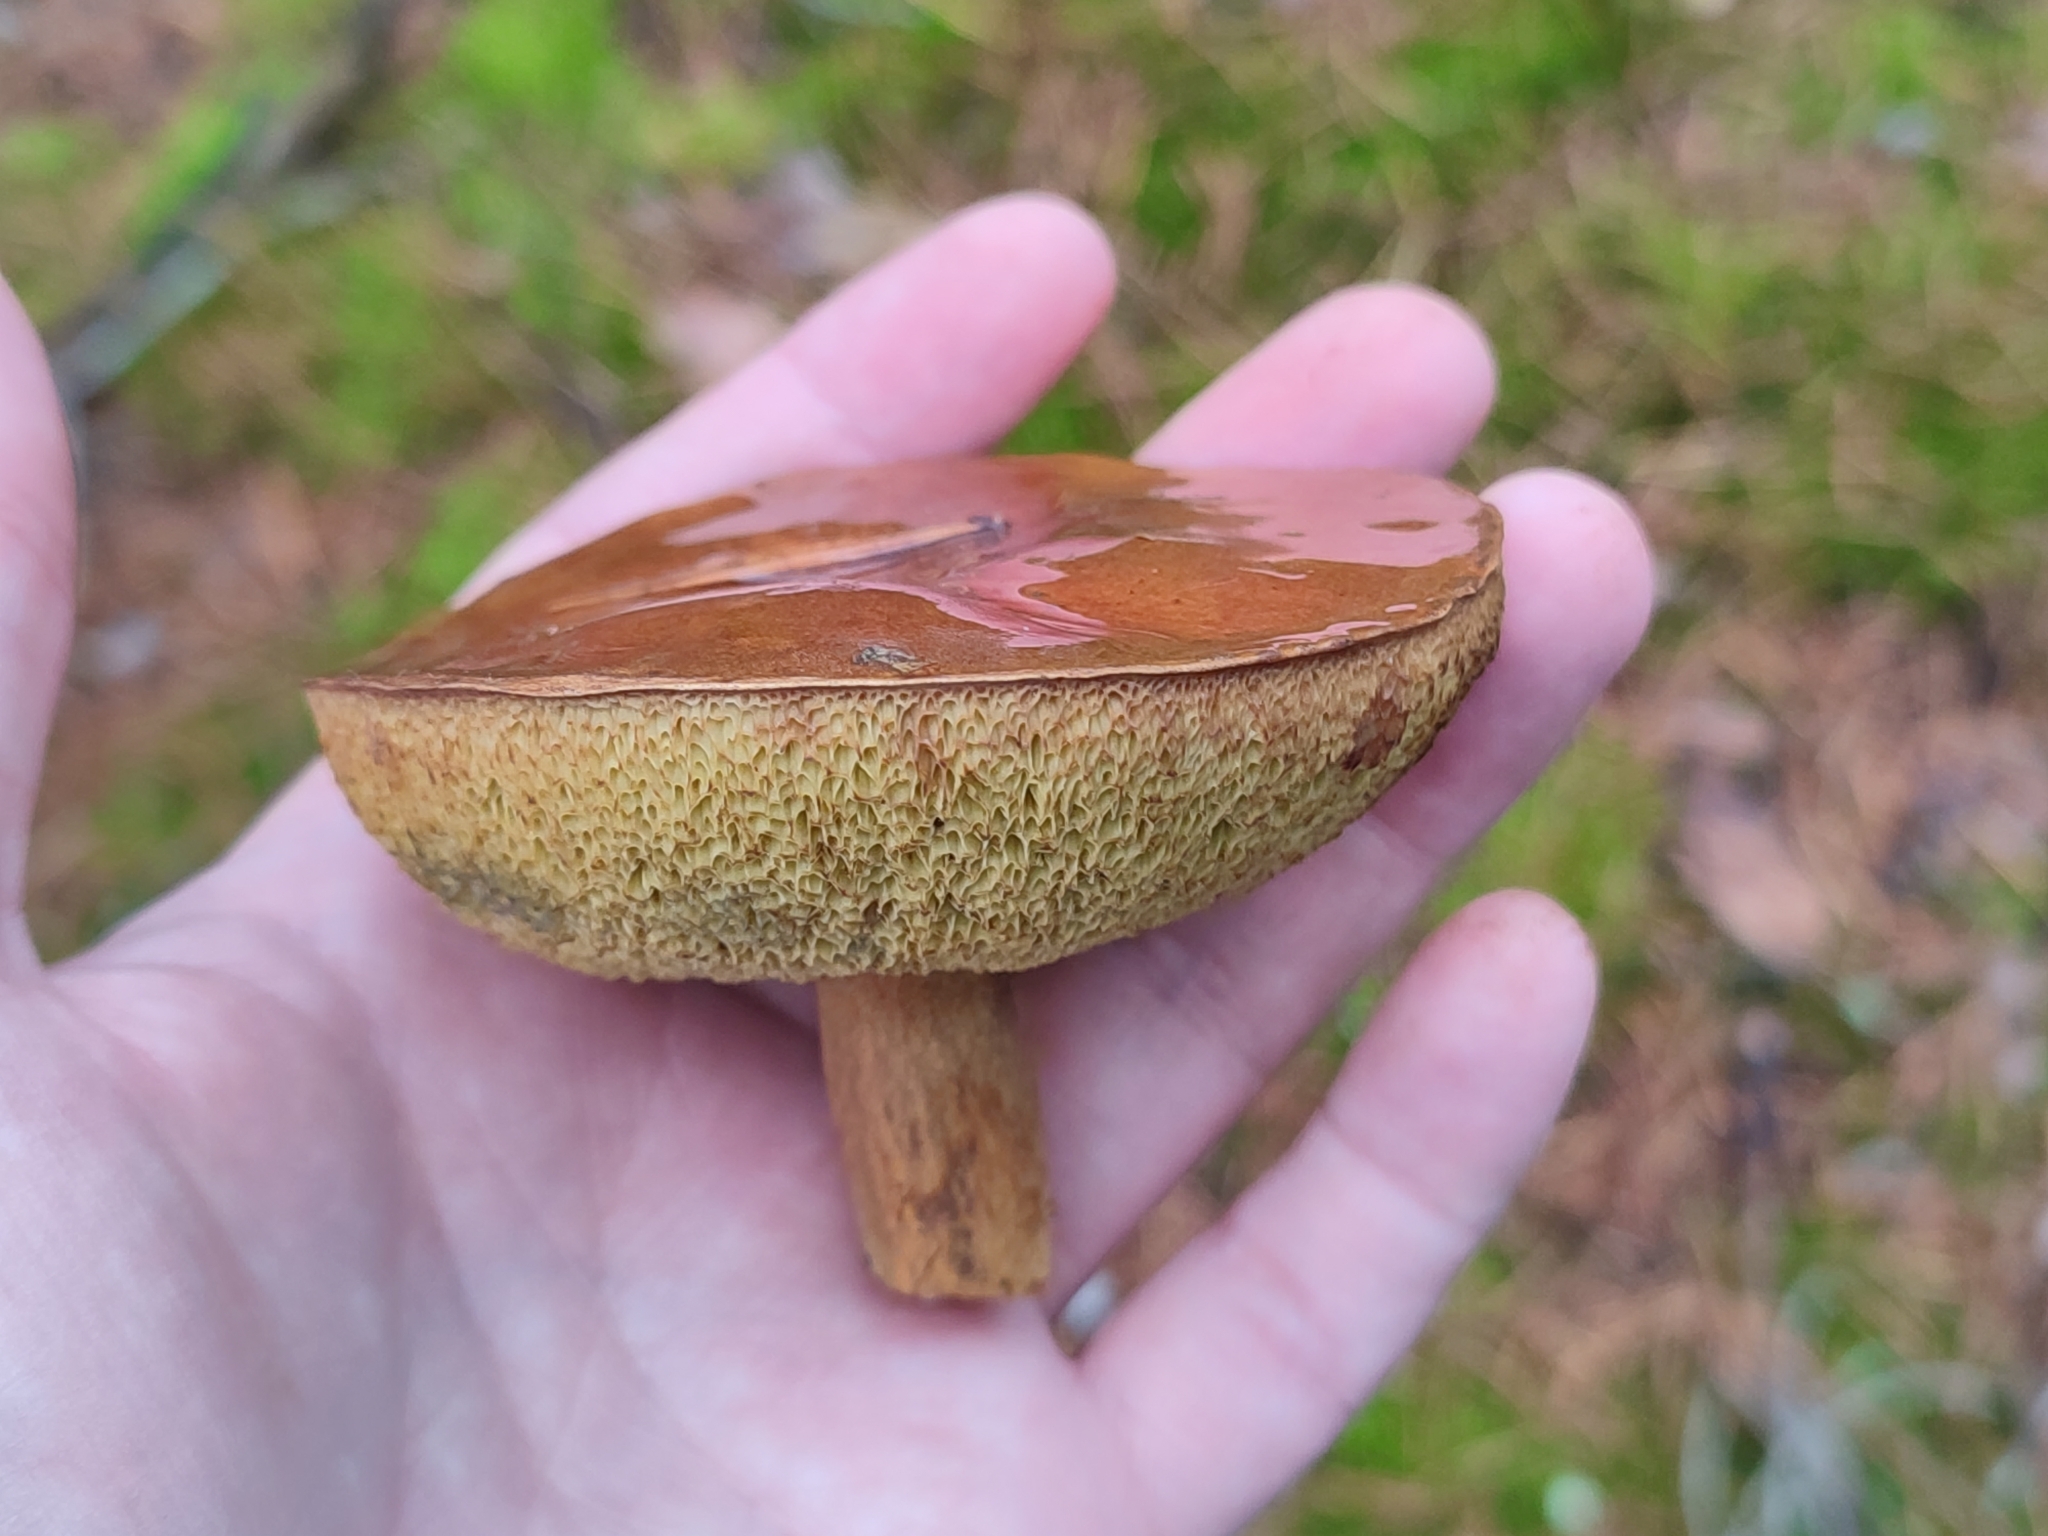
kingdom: Fungi
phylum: Basidiomycota
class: Agaricomycetes
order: Boletales
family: Boletaceae
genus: Imleria
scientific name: Imleria badia
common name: Bay bolete
